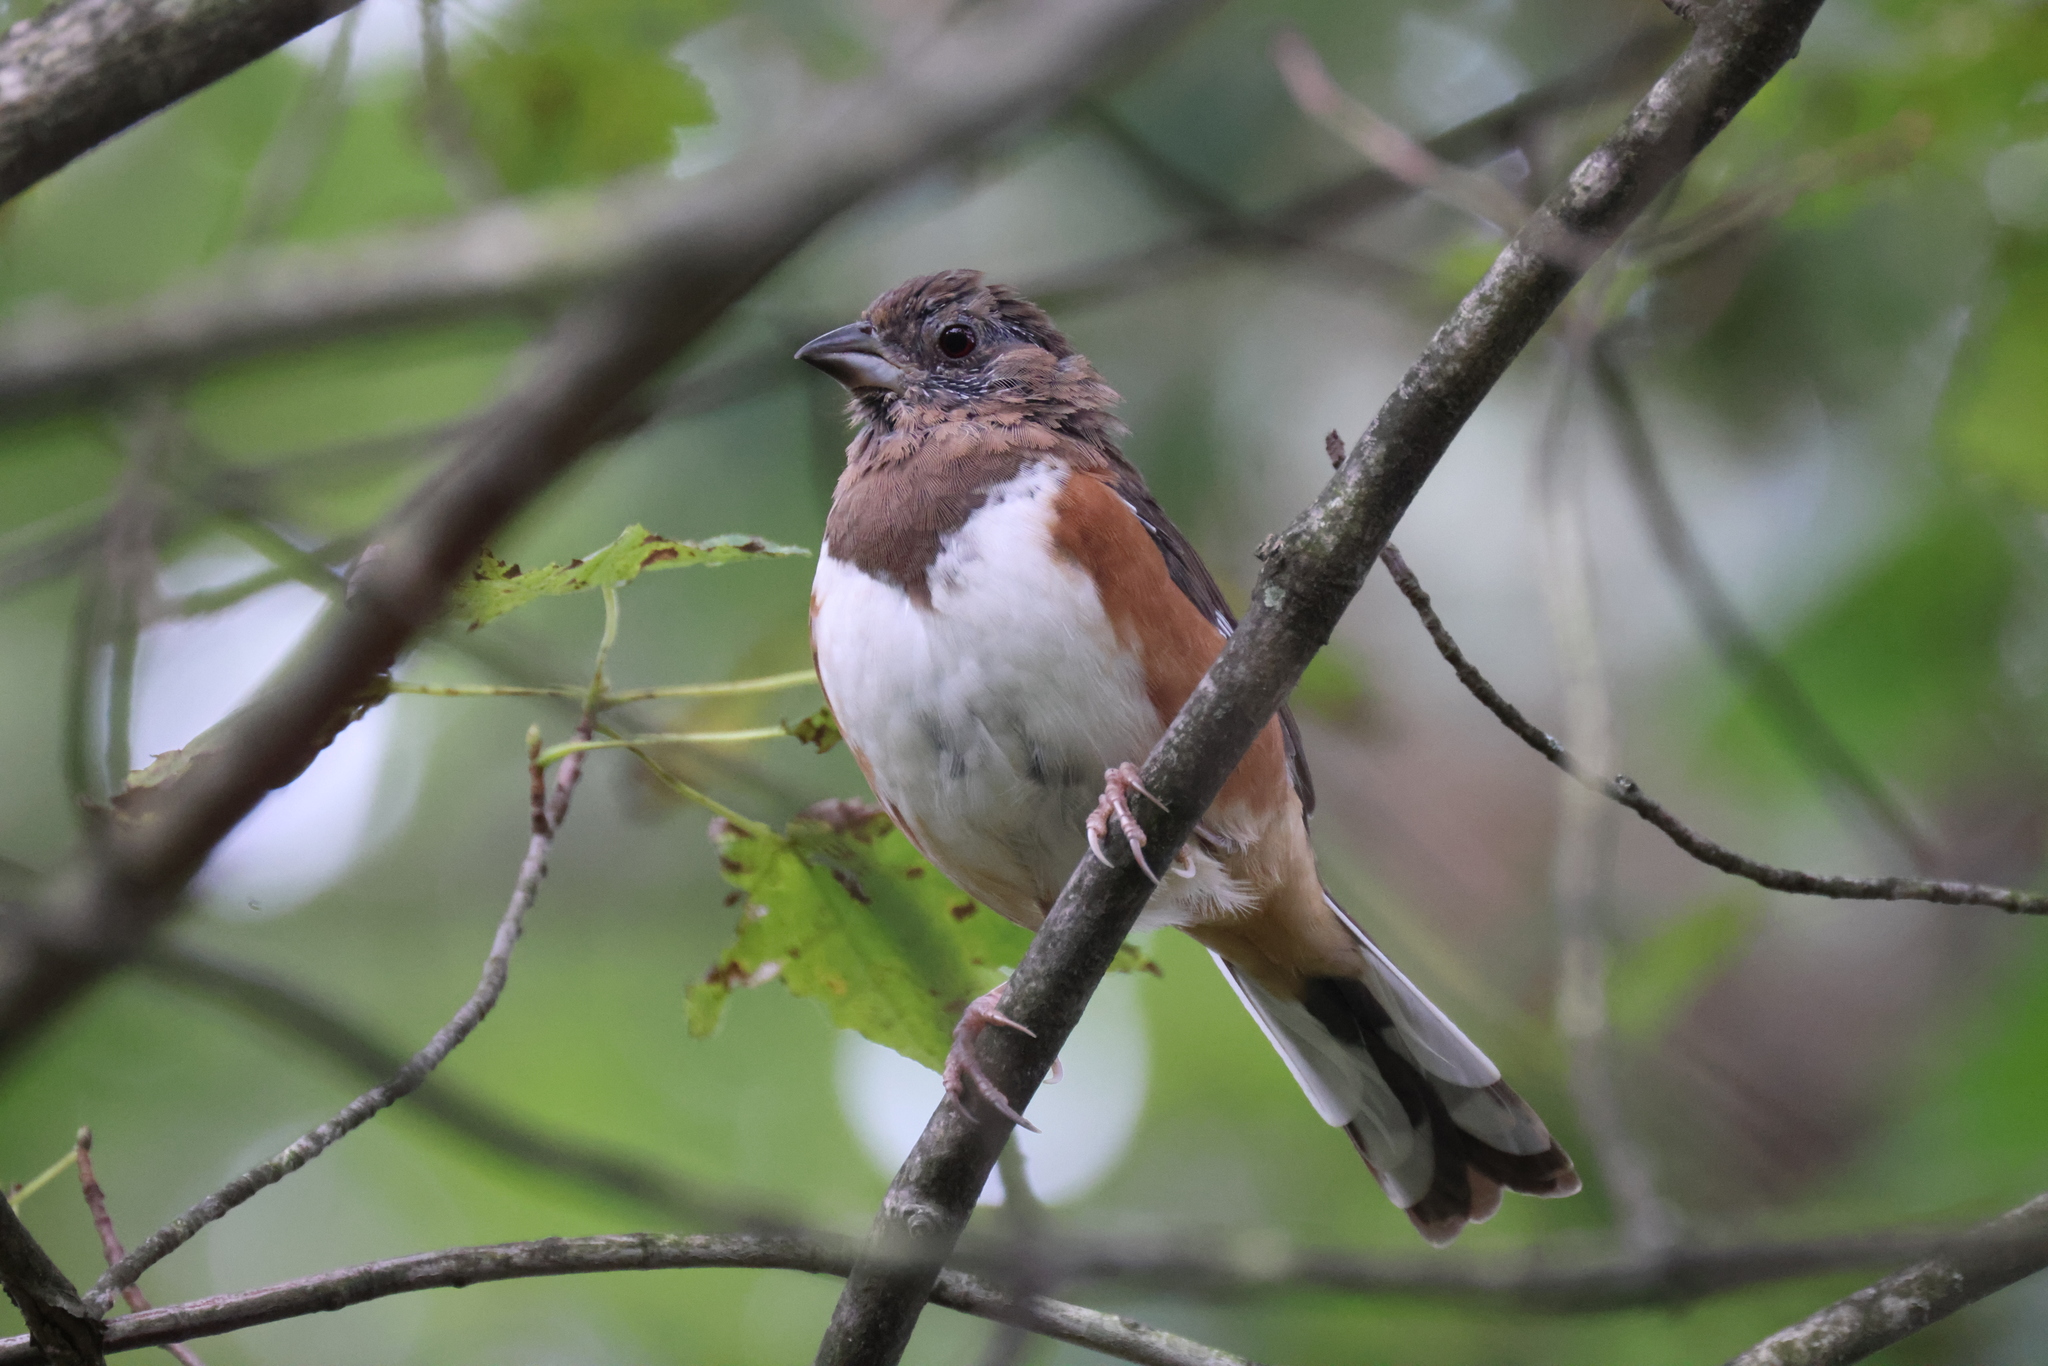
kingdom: Animalia
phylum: Chordata
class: Aves
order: Passeriformes
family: Passerellidae
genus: Pipilo
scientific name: Pipilo erythrophthalmus
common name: Eastern towhee
